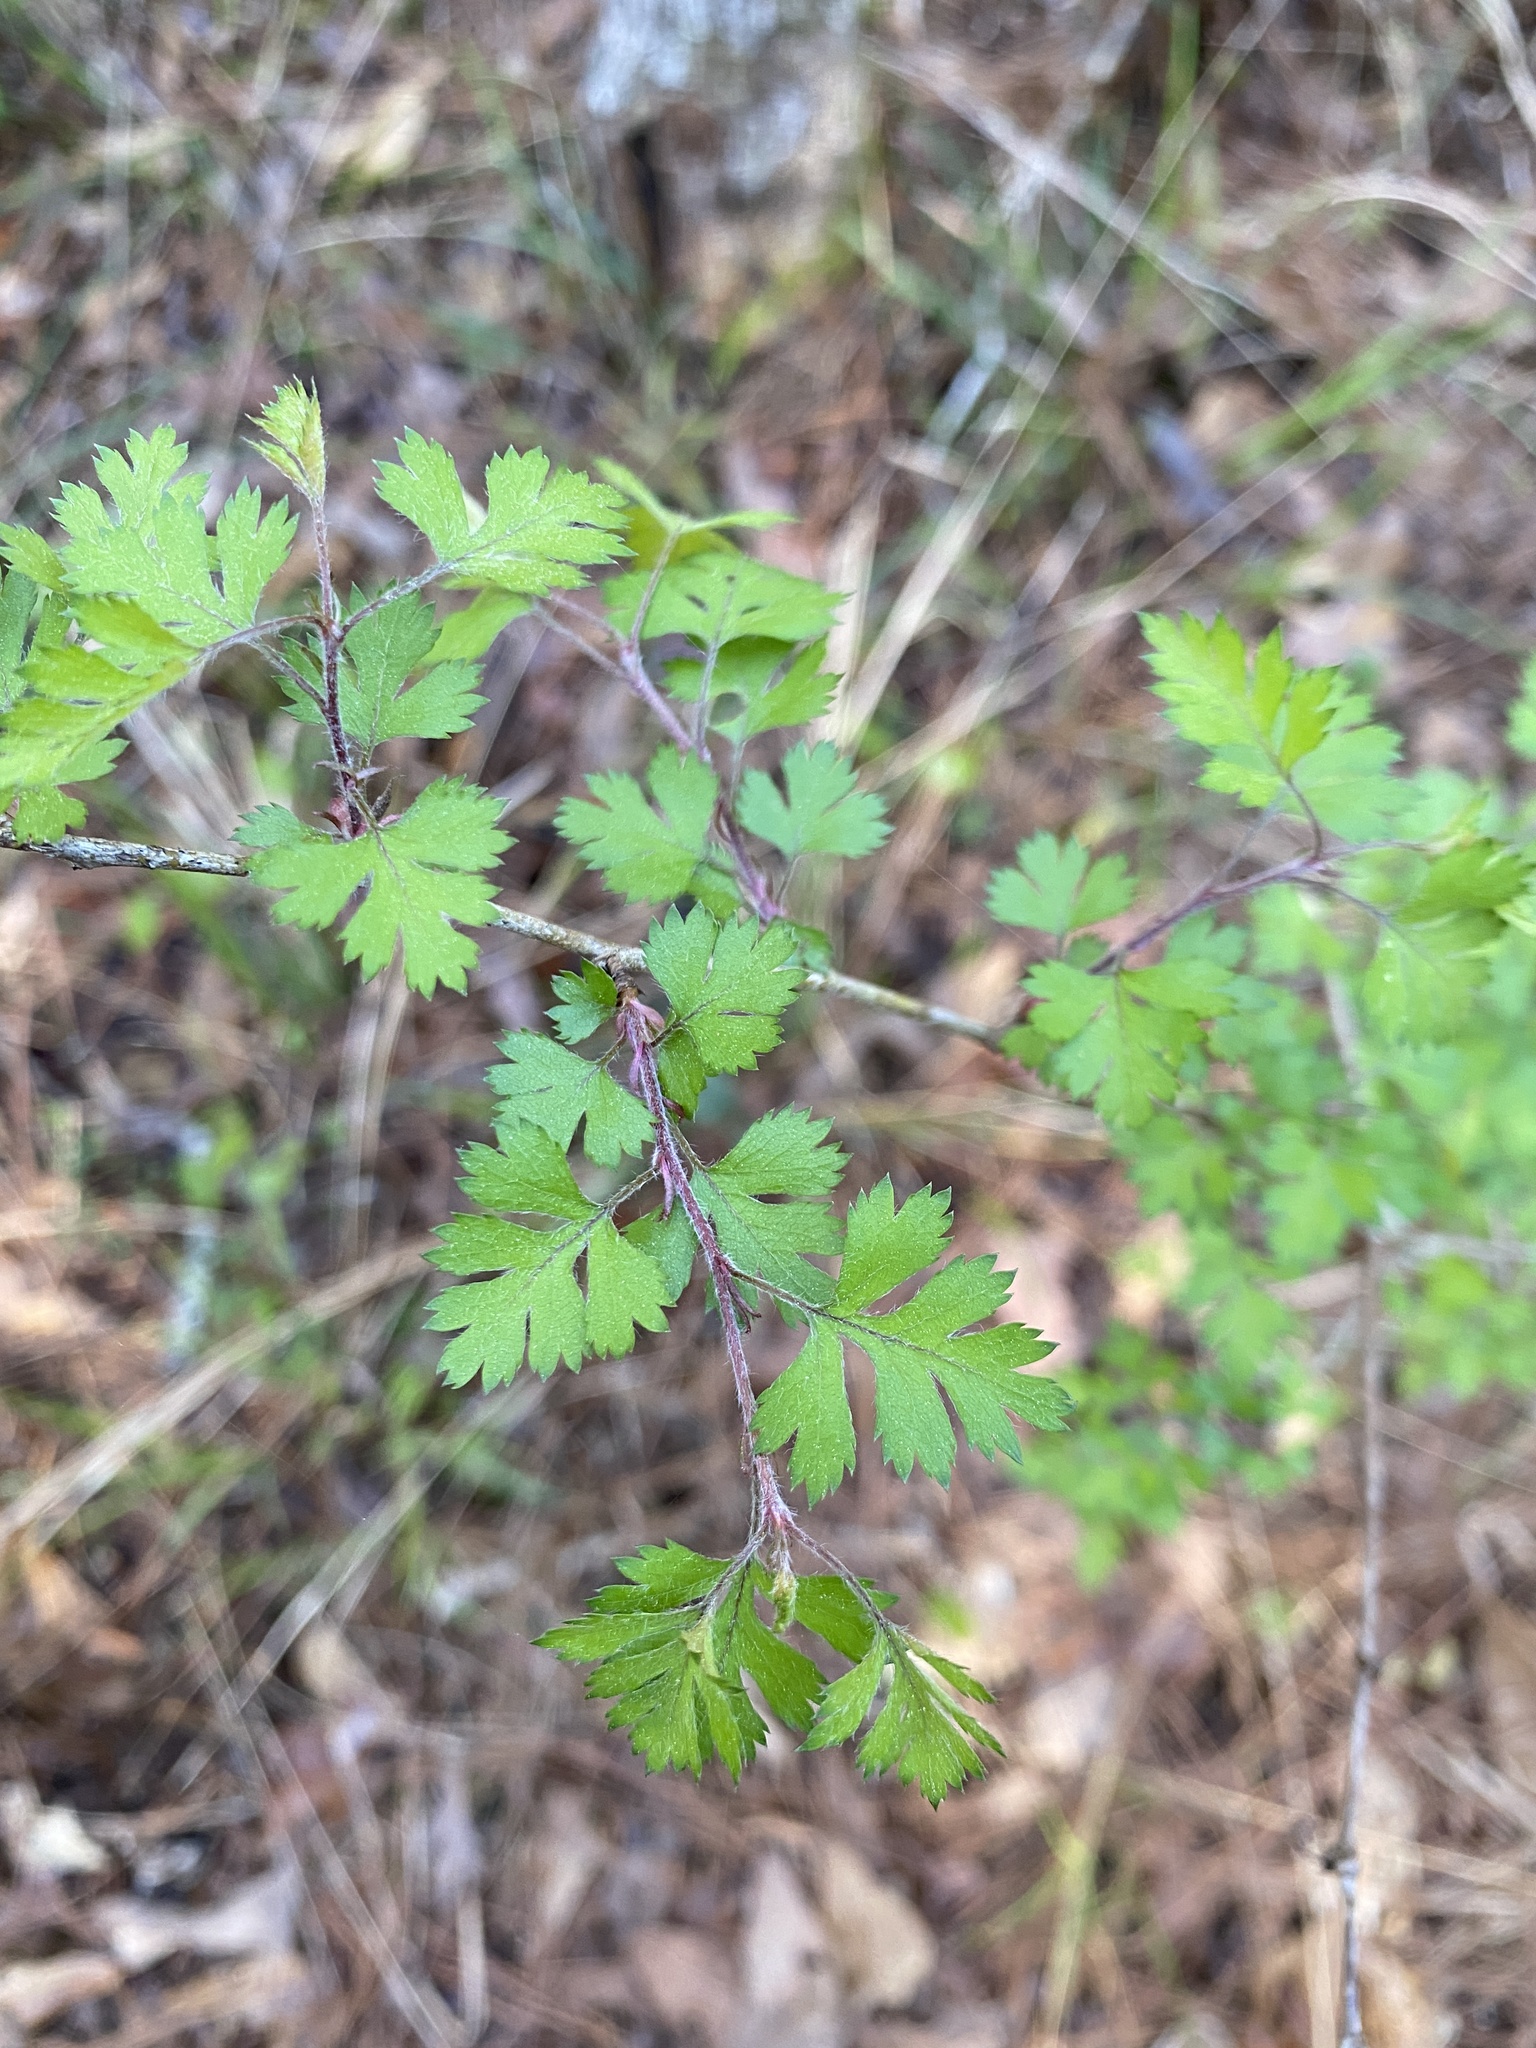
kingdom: Plantae
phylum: Tracheophyta
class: Magnoliopsida
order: Rosales
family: Rosaceae
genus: Crataegus
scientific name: Crataegus marshallii
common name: Parsley-hawthorn
